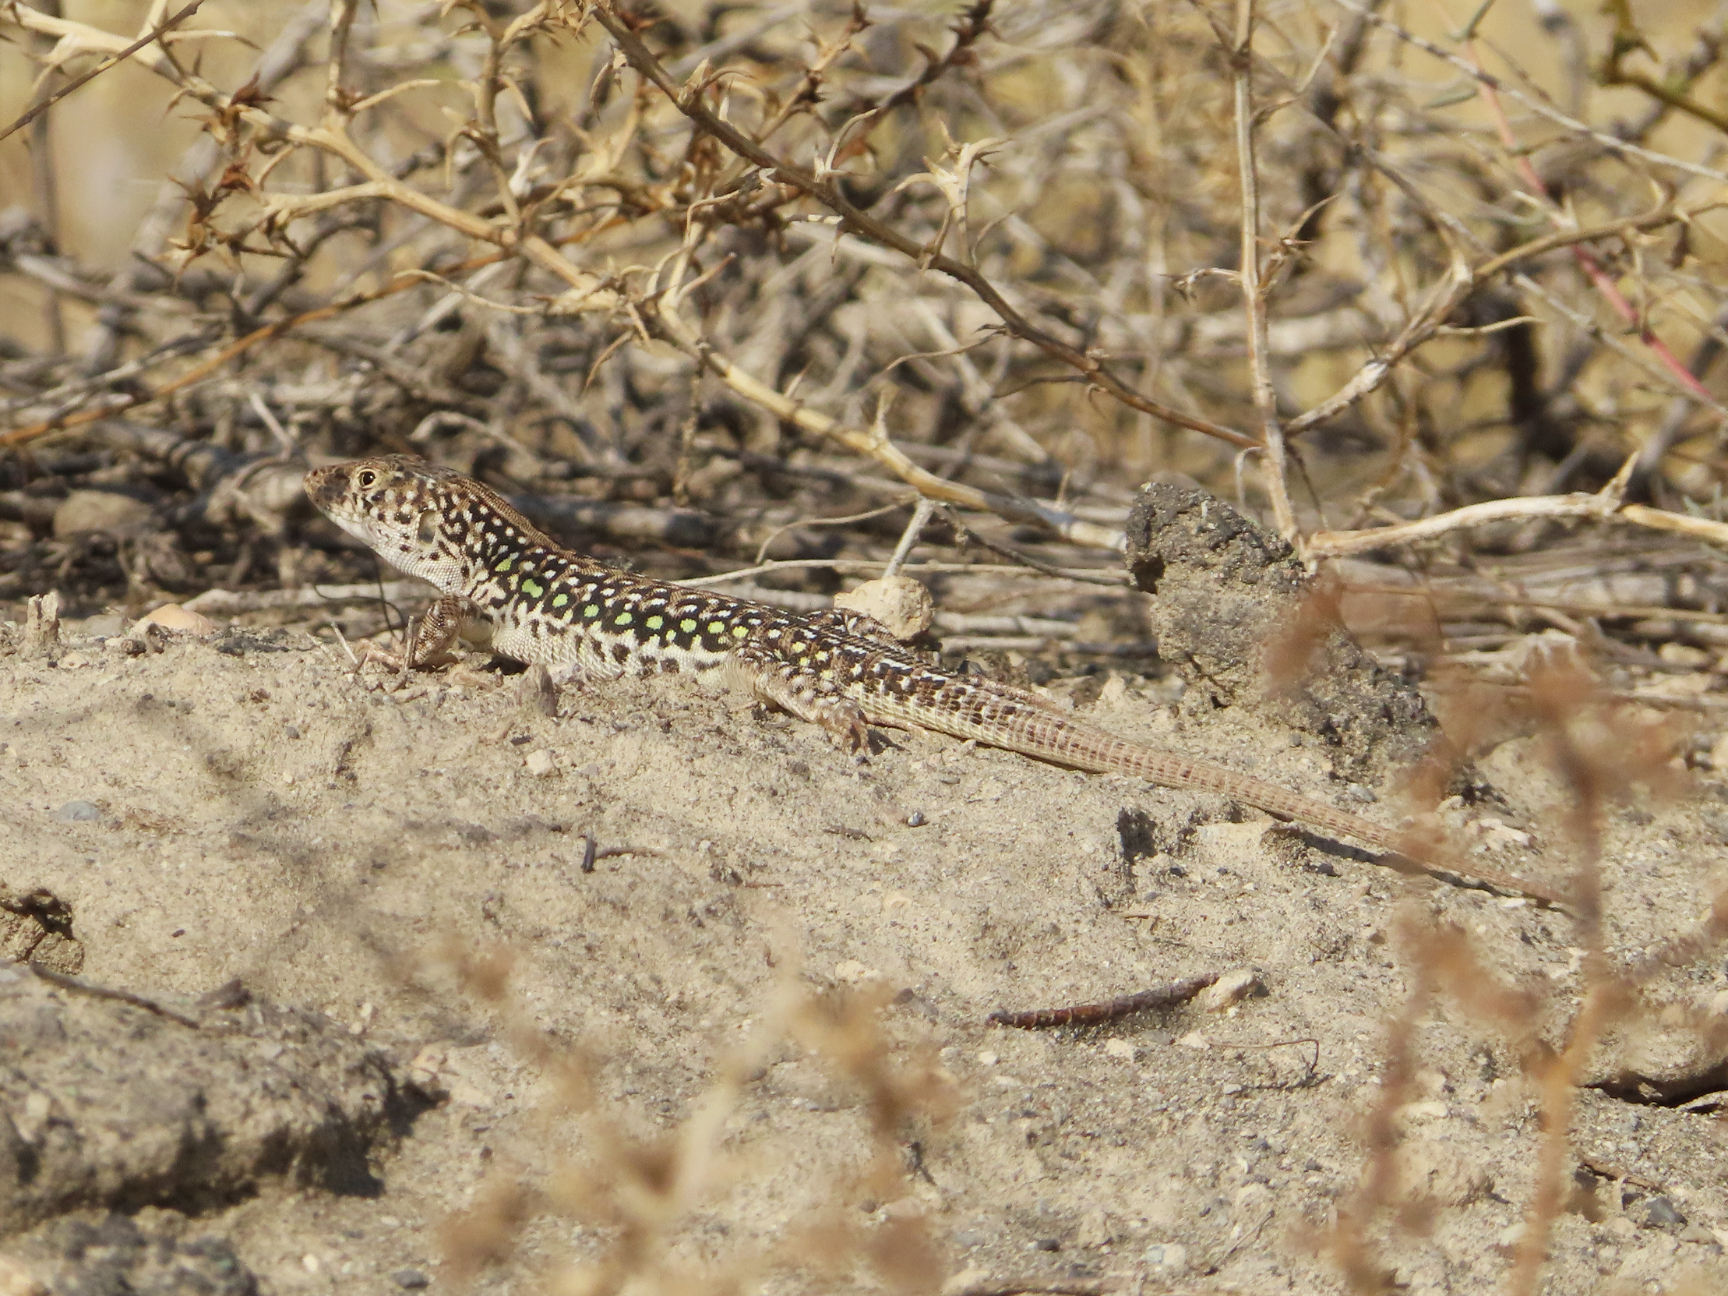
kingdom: Animalia
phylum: Chordata
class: Squamata
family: Lacertidae
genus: Eremias
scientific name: Eremias strauchi
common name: Strauch's racerunner
